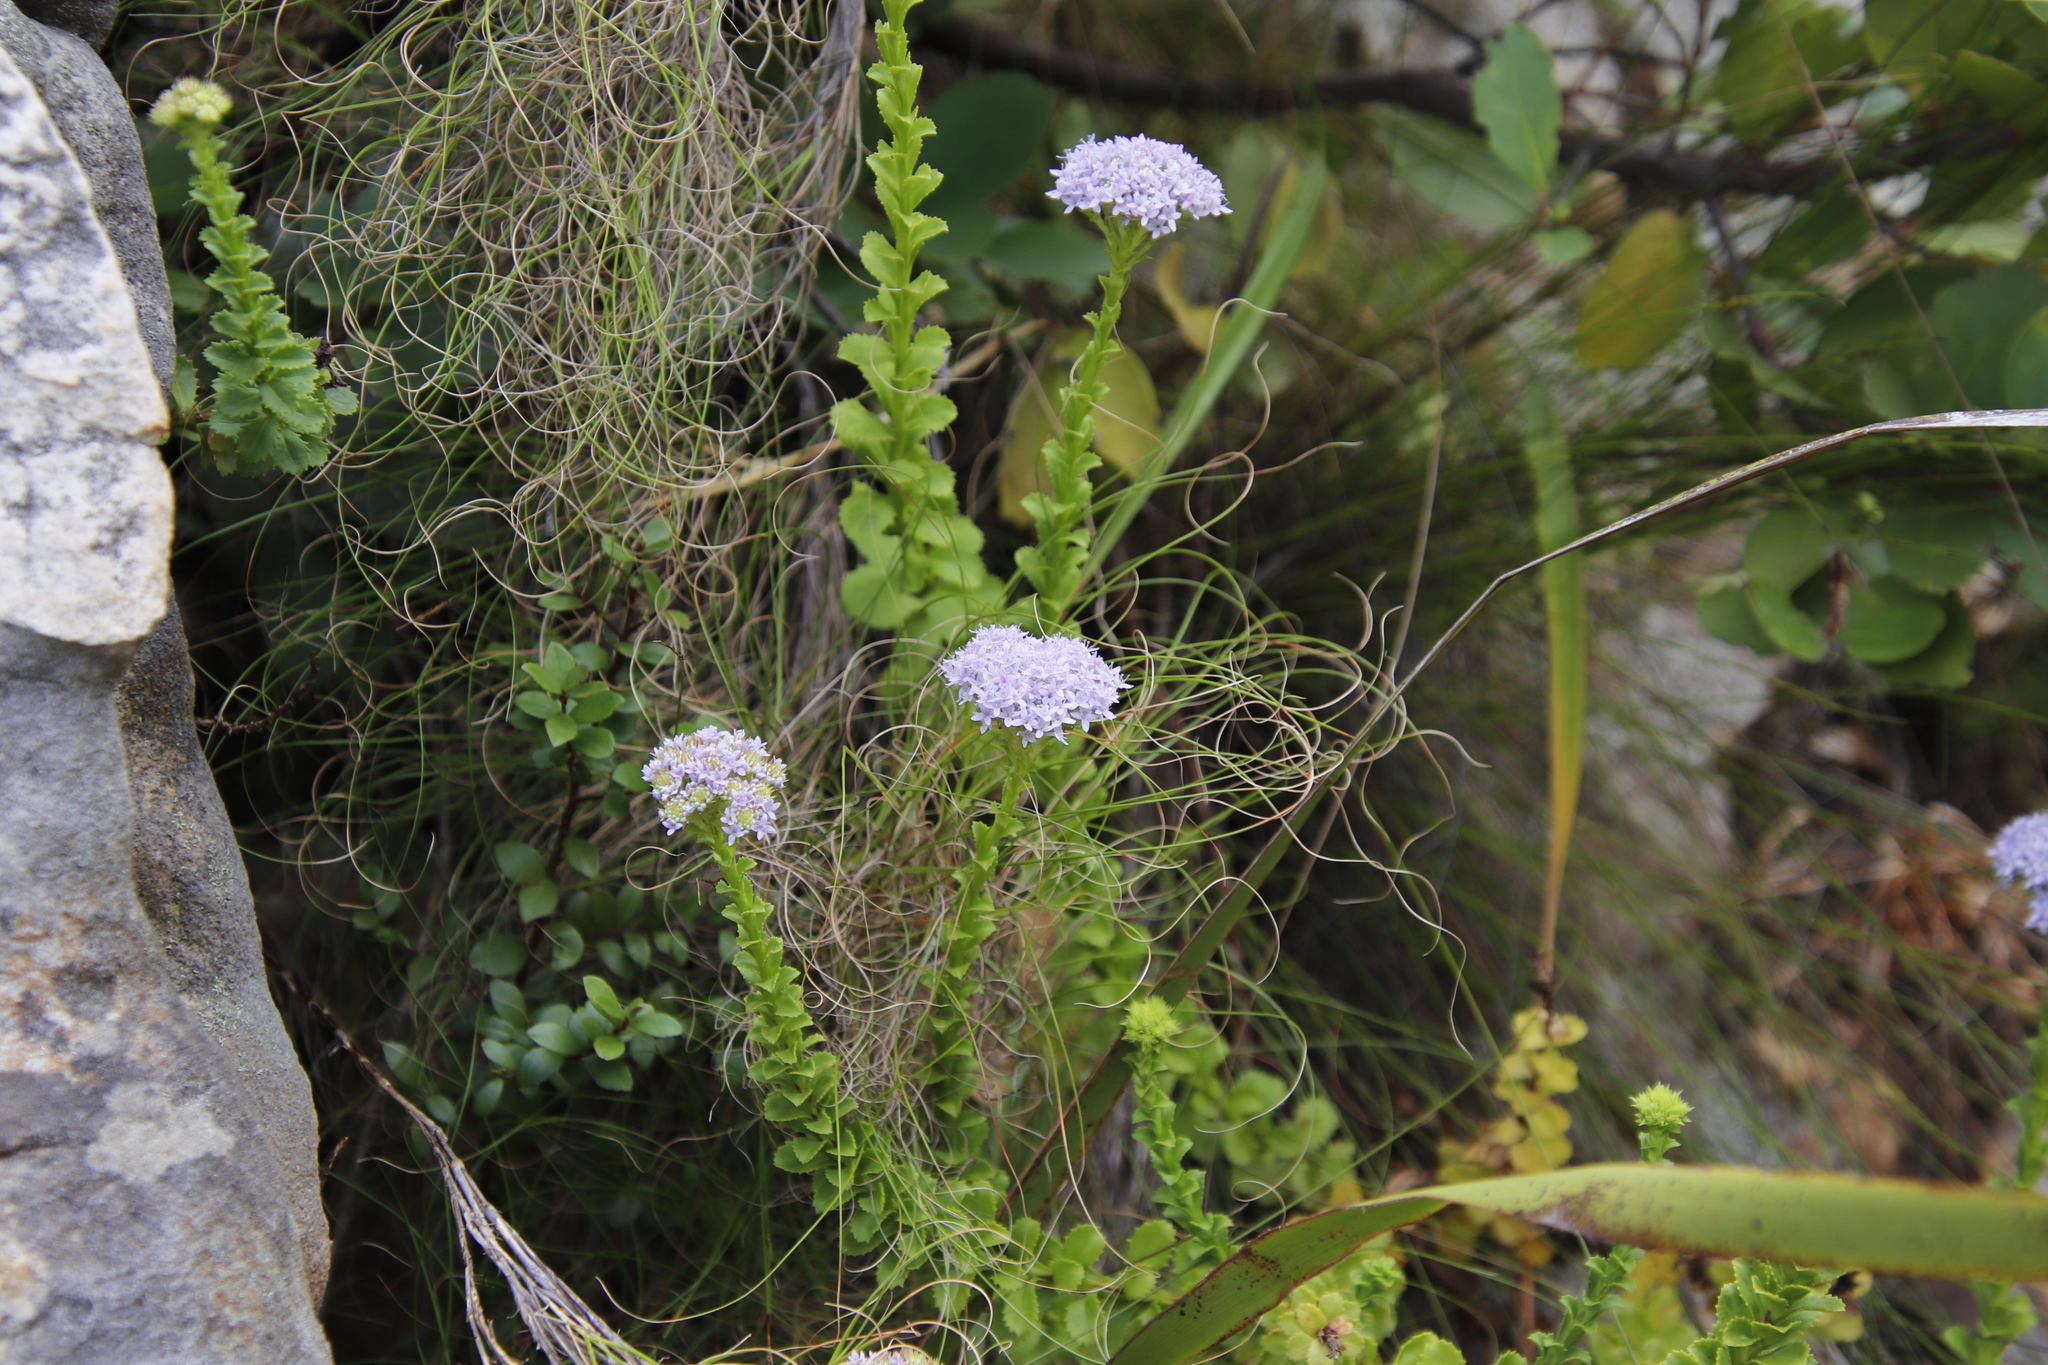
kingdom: Plantae
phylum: Tracheophyta
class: Magnoliopsida
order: Lamiales
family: Scrophulariaceae
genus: Pseudoselago
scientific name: Pseudoselago serrata
